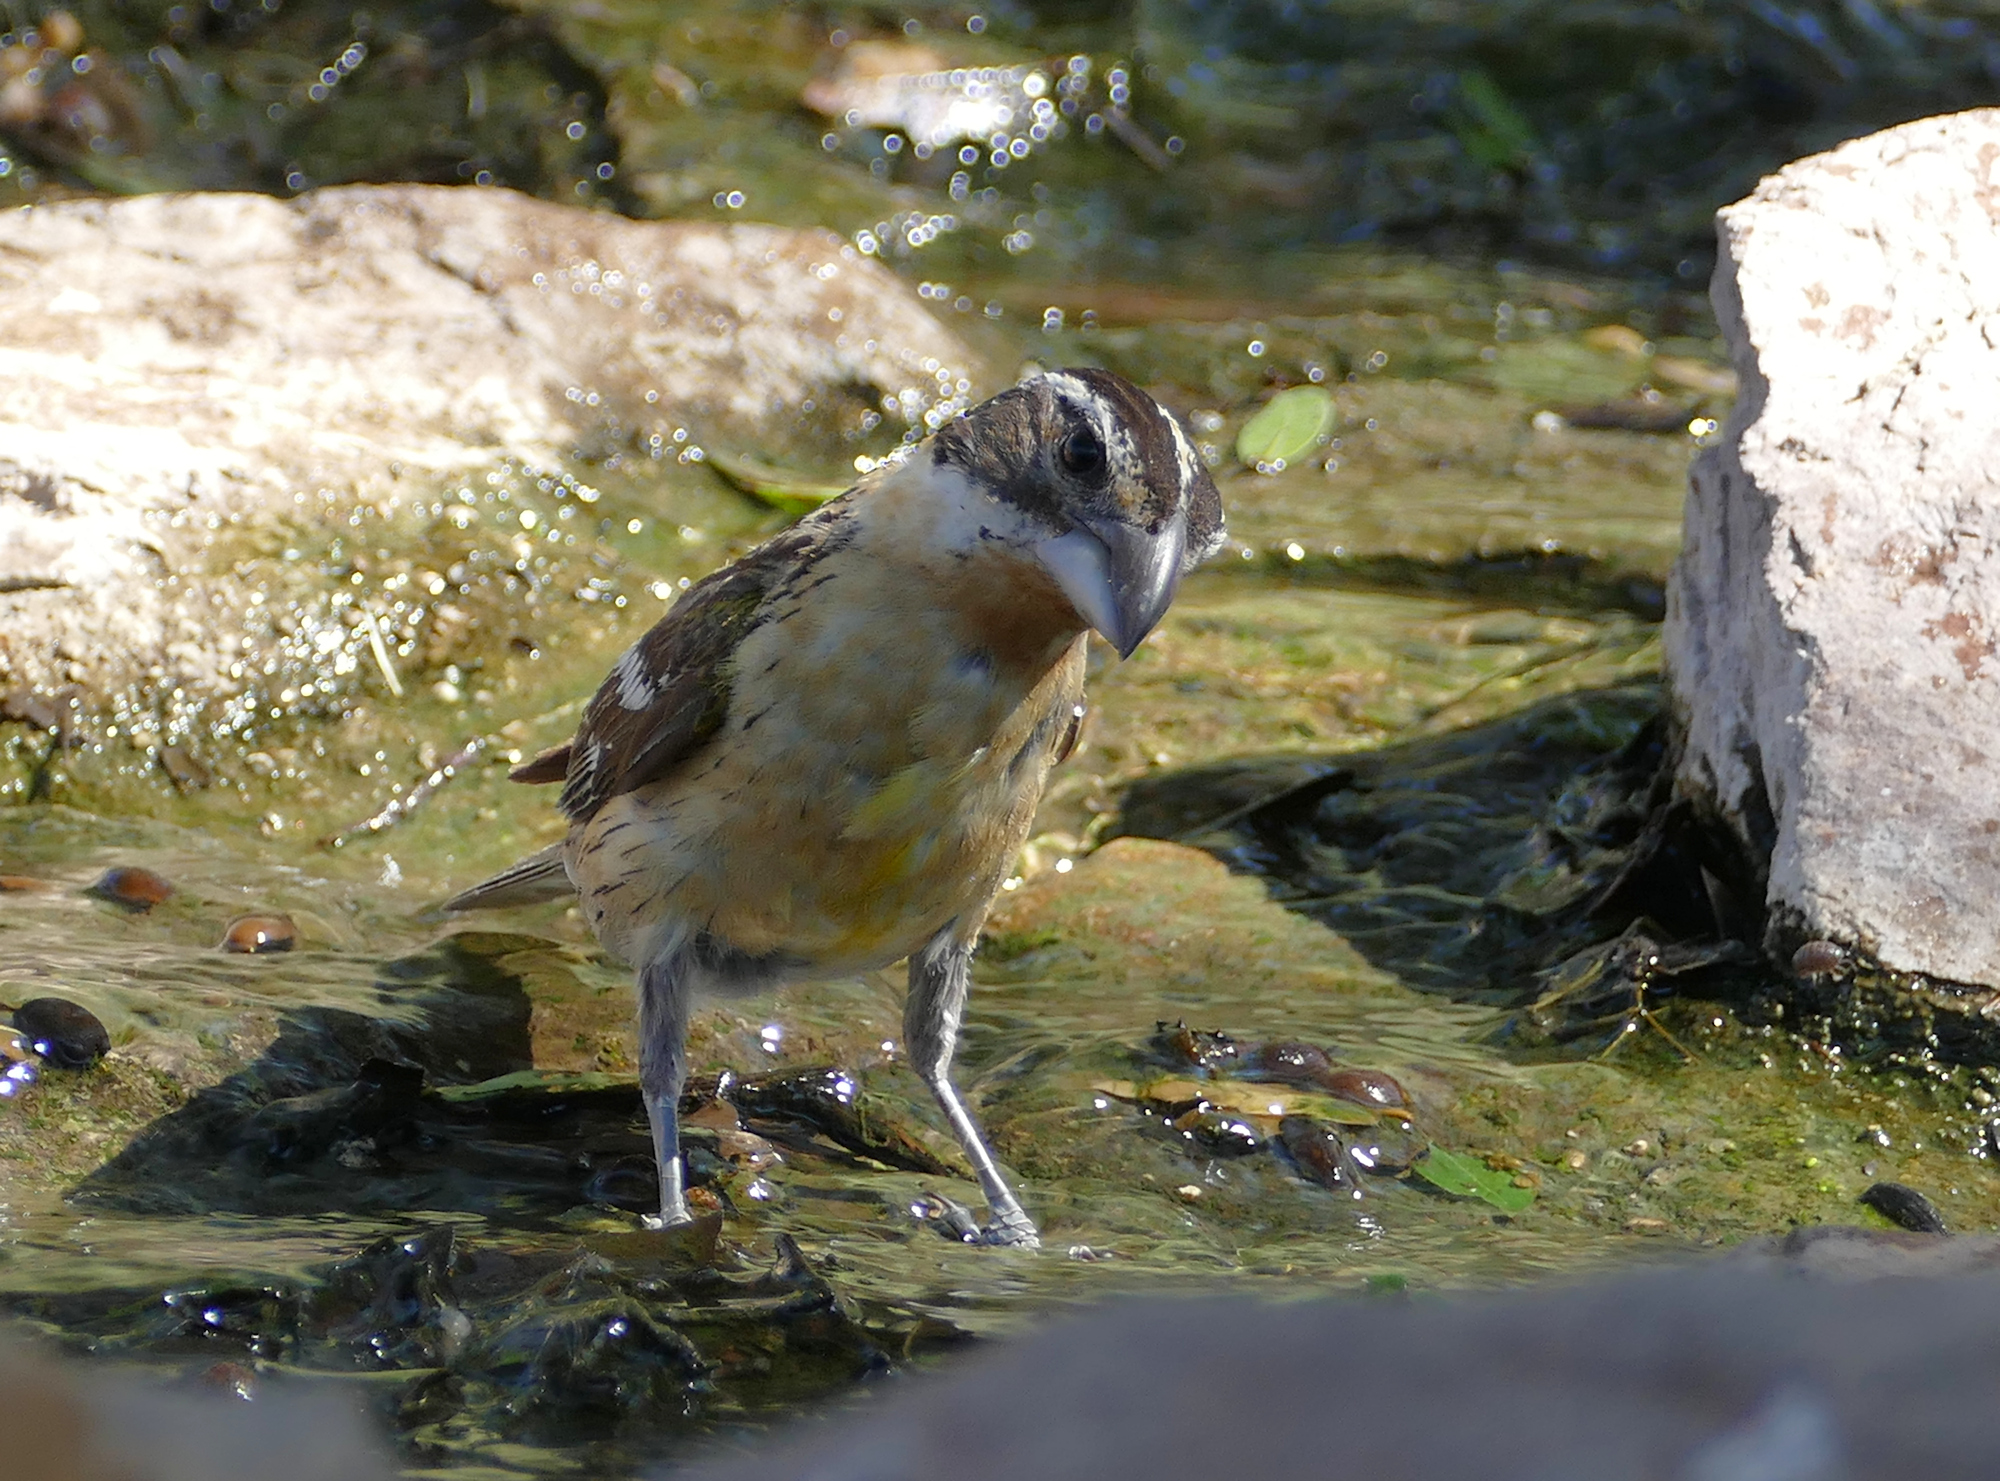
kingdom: Animalia
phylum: Chordata
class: Aves
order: Passeriformes
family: Cardinalidae
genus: Pheucticus
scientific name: Pheucticus melanocephalus
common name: Black-headed grosbeak
